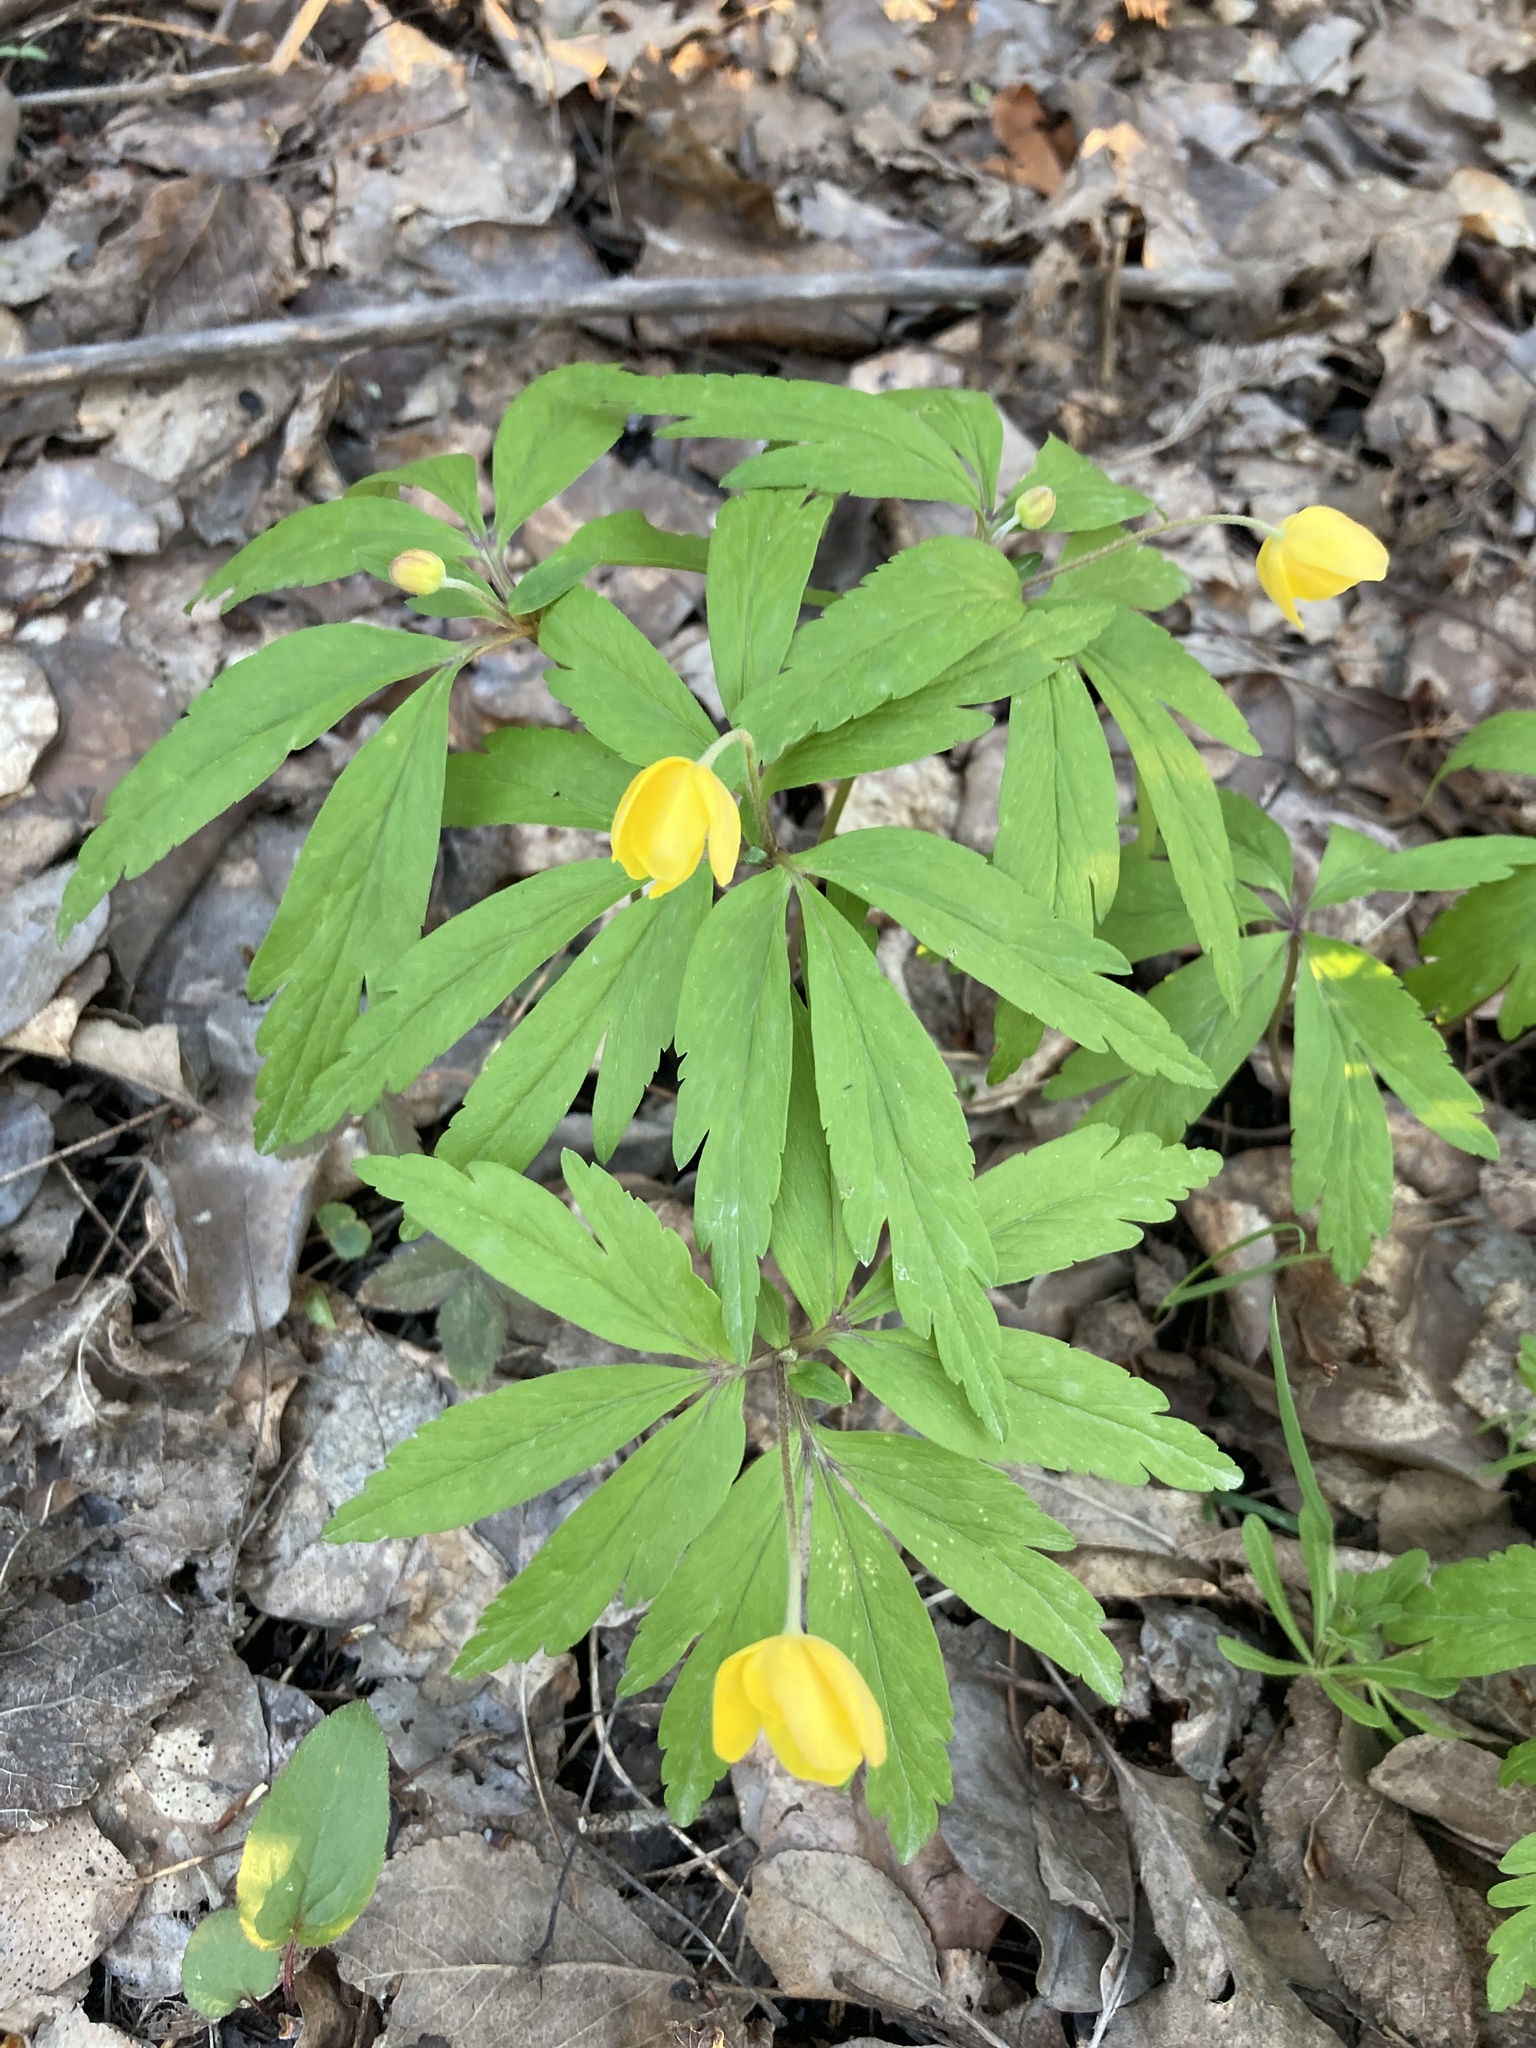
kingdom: Plantae
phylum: Tracheophyta
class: Magnoliopsida
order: Ranunculales
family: Ranunculaceae
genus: Anemone
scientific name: Anemone ranunculoides
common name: Yellow anemone
